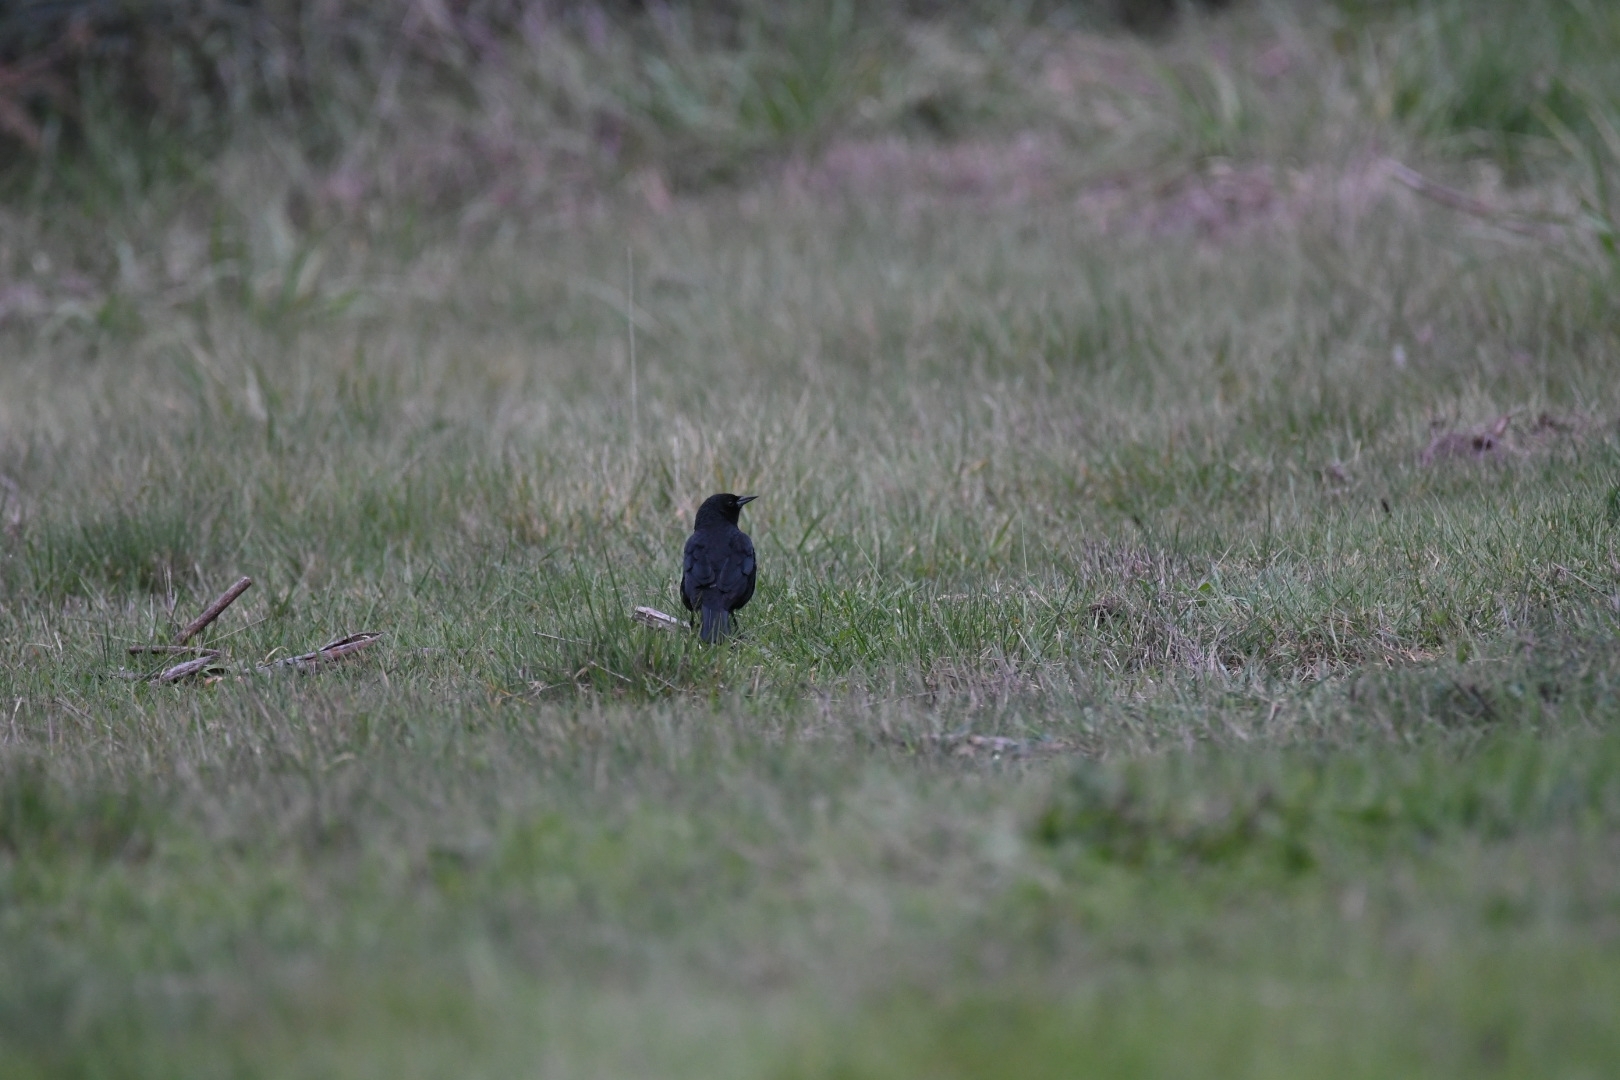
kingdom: Animalia
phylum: Chordata
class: Aves
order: Passeriformes
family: Icteridae
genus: Curaeus
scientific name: Curaeus curaeus
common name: Austral blackbird
